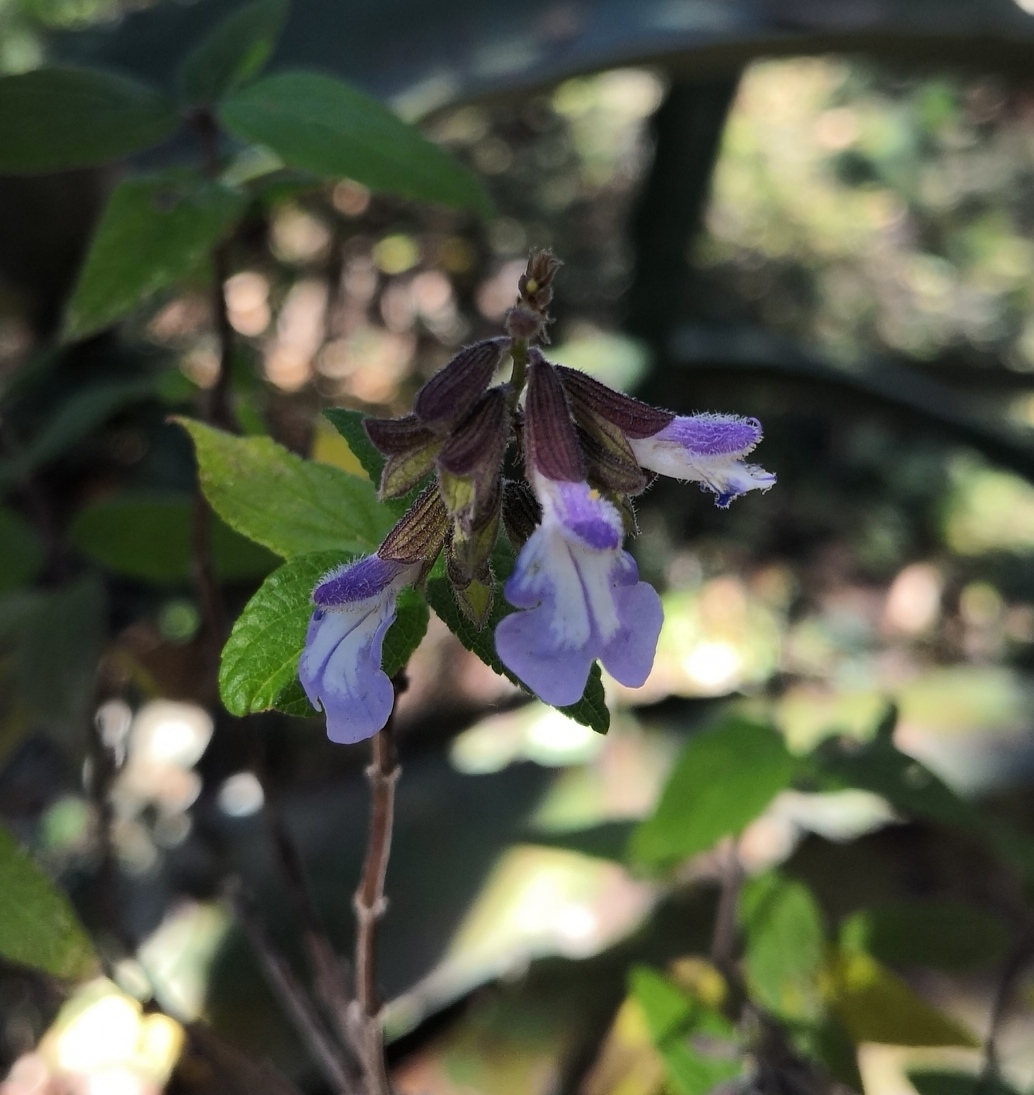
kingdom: Plantae
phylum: Tracheophyta
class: Magnoliopsida
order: Lamiales
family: Lamiaceae
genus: Salvia
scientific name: Salvia quercetorum
